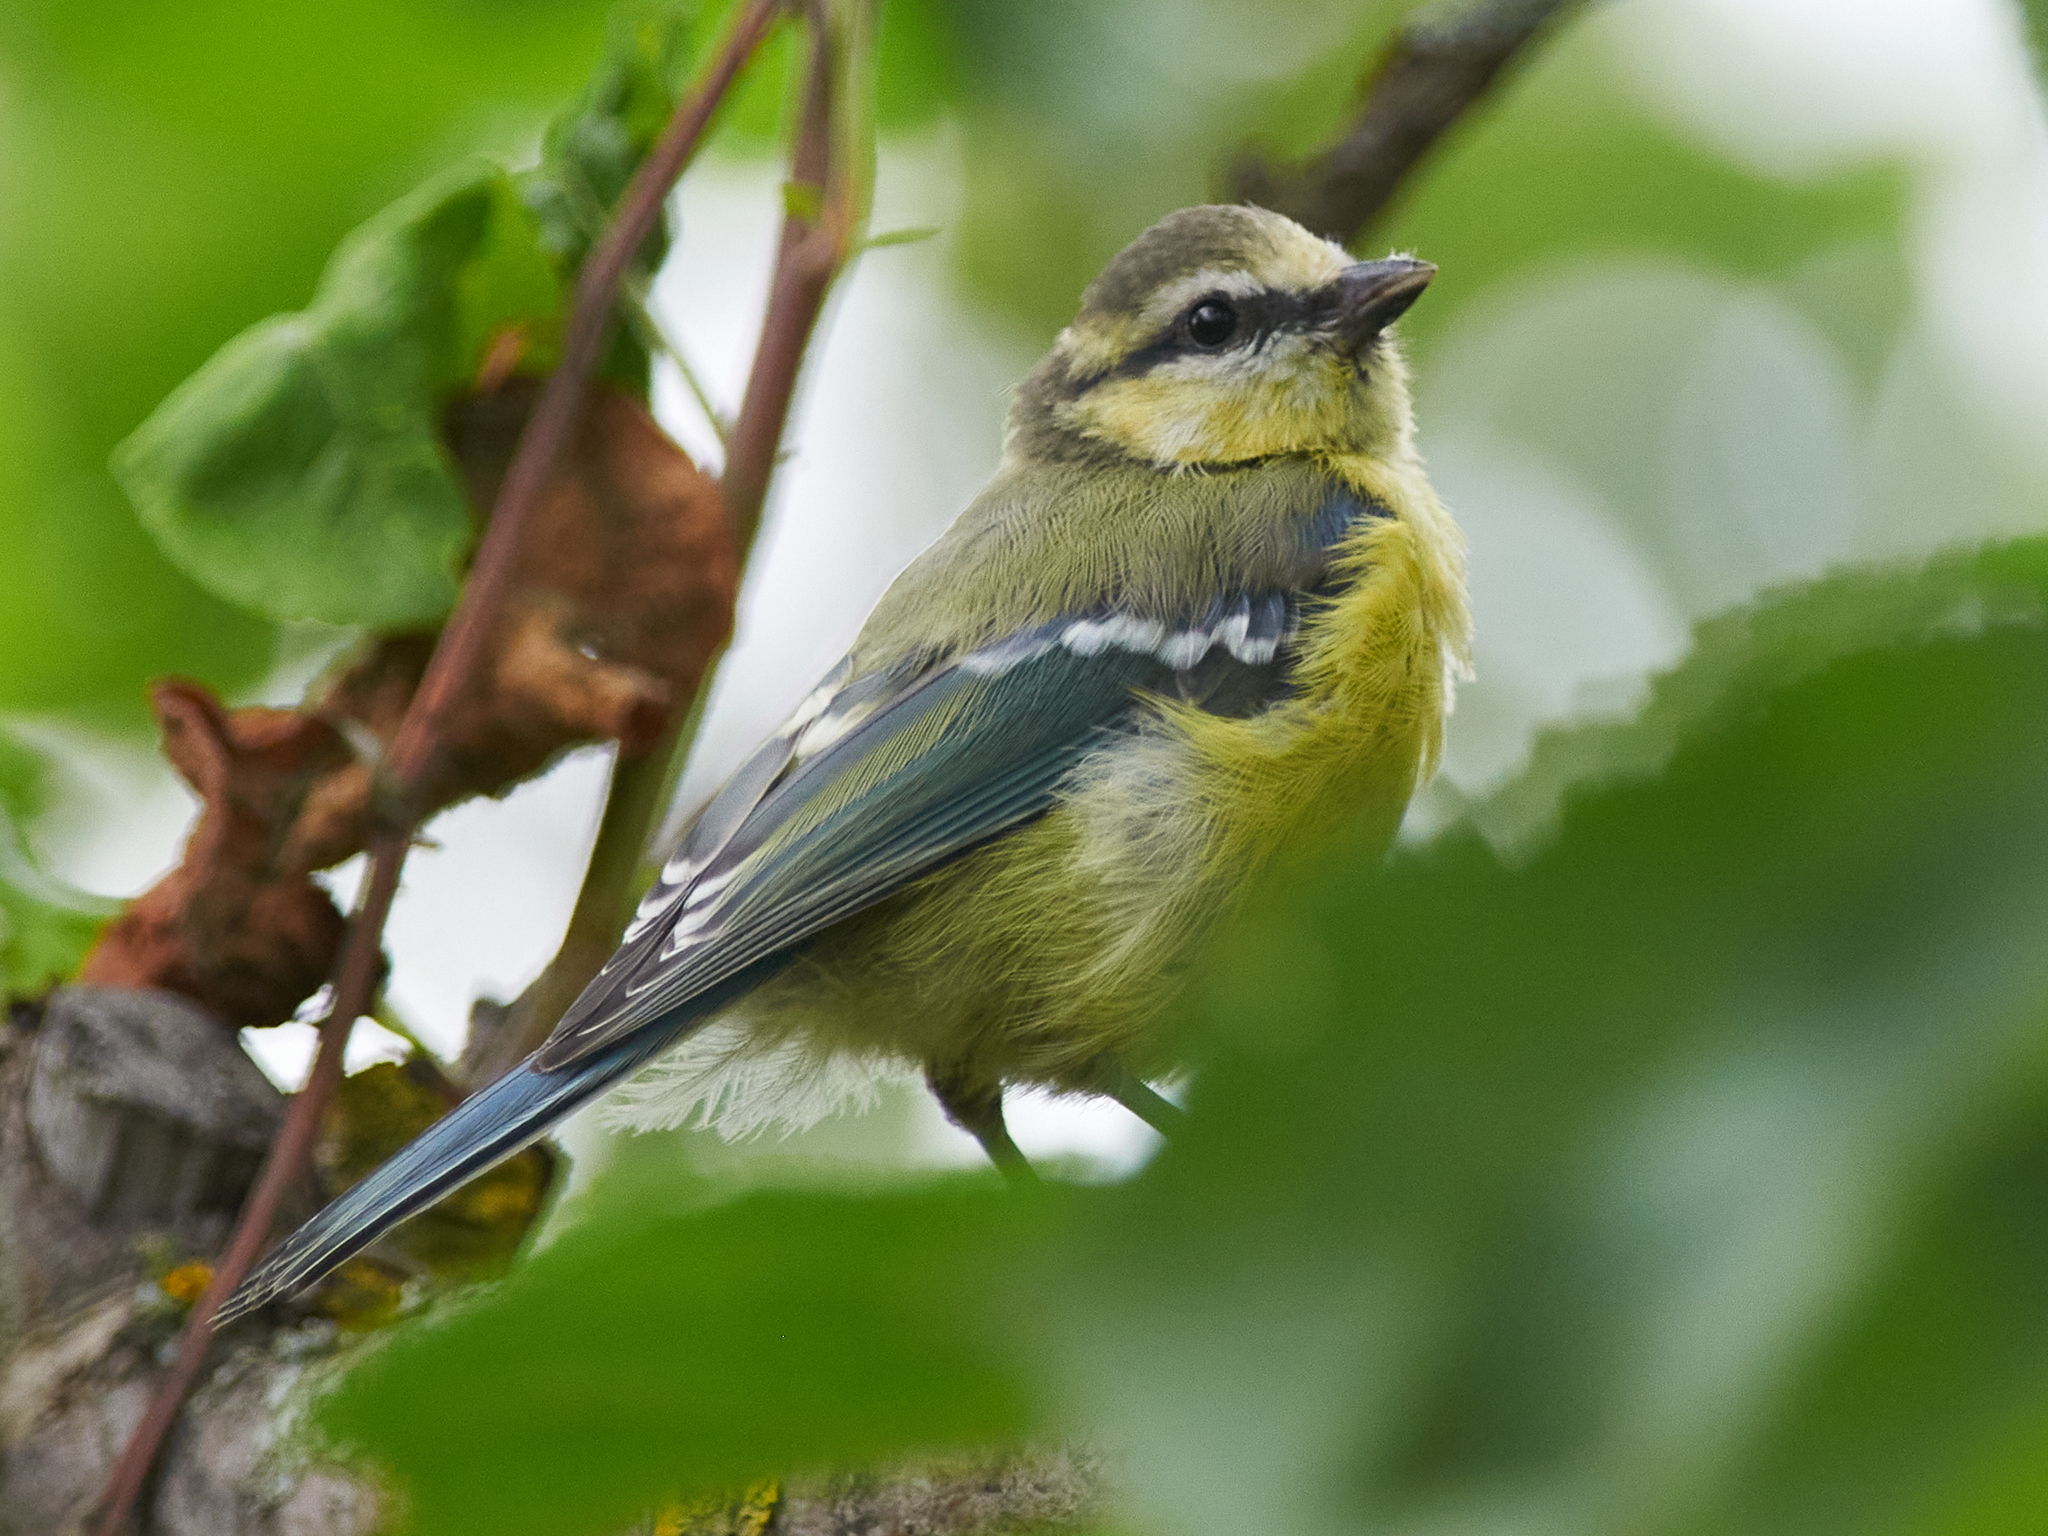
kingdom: Animalia
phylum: Chordata
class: Aves
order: Passeriformes
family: Paridae
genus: Cyanistes
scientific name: Cyanistes caeruleus
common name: Eurasian blue tit
